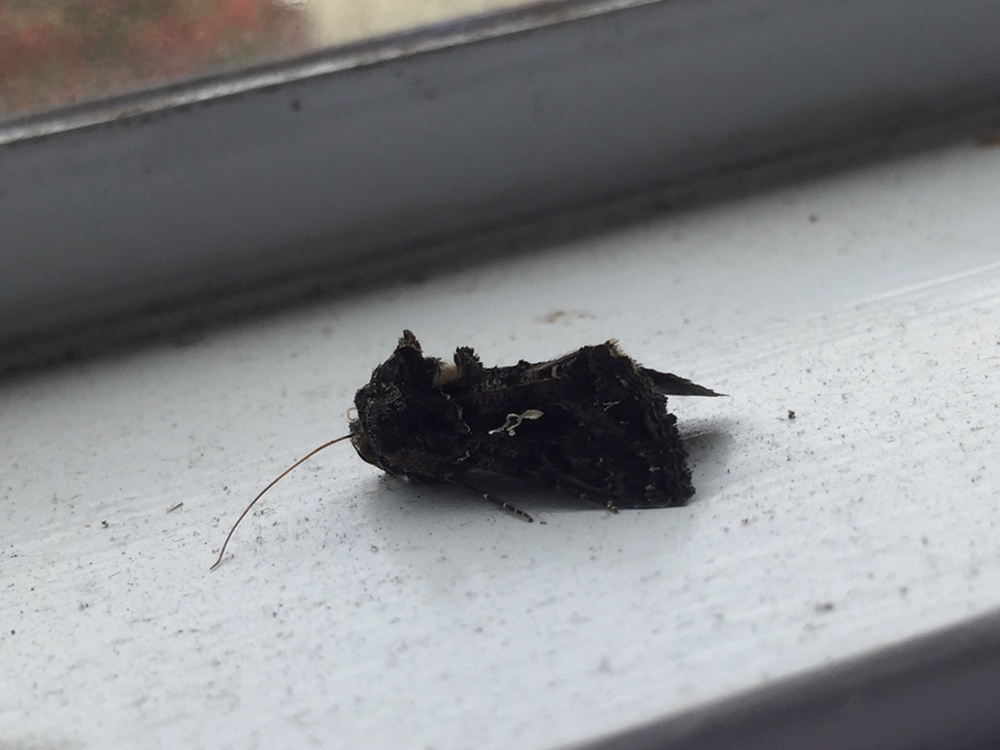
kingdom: Animalia
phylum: Arthropoda
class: Insecta
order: Lepidoptera
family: Noctuidae
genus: Ctenoplusia
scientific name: Ctenoplusia limbirena
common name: Scar bank gem
